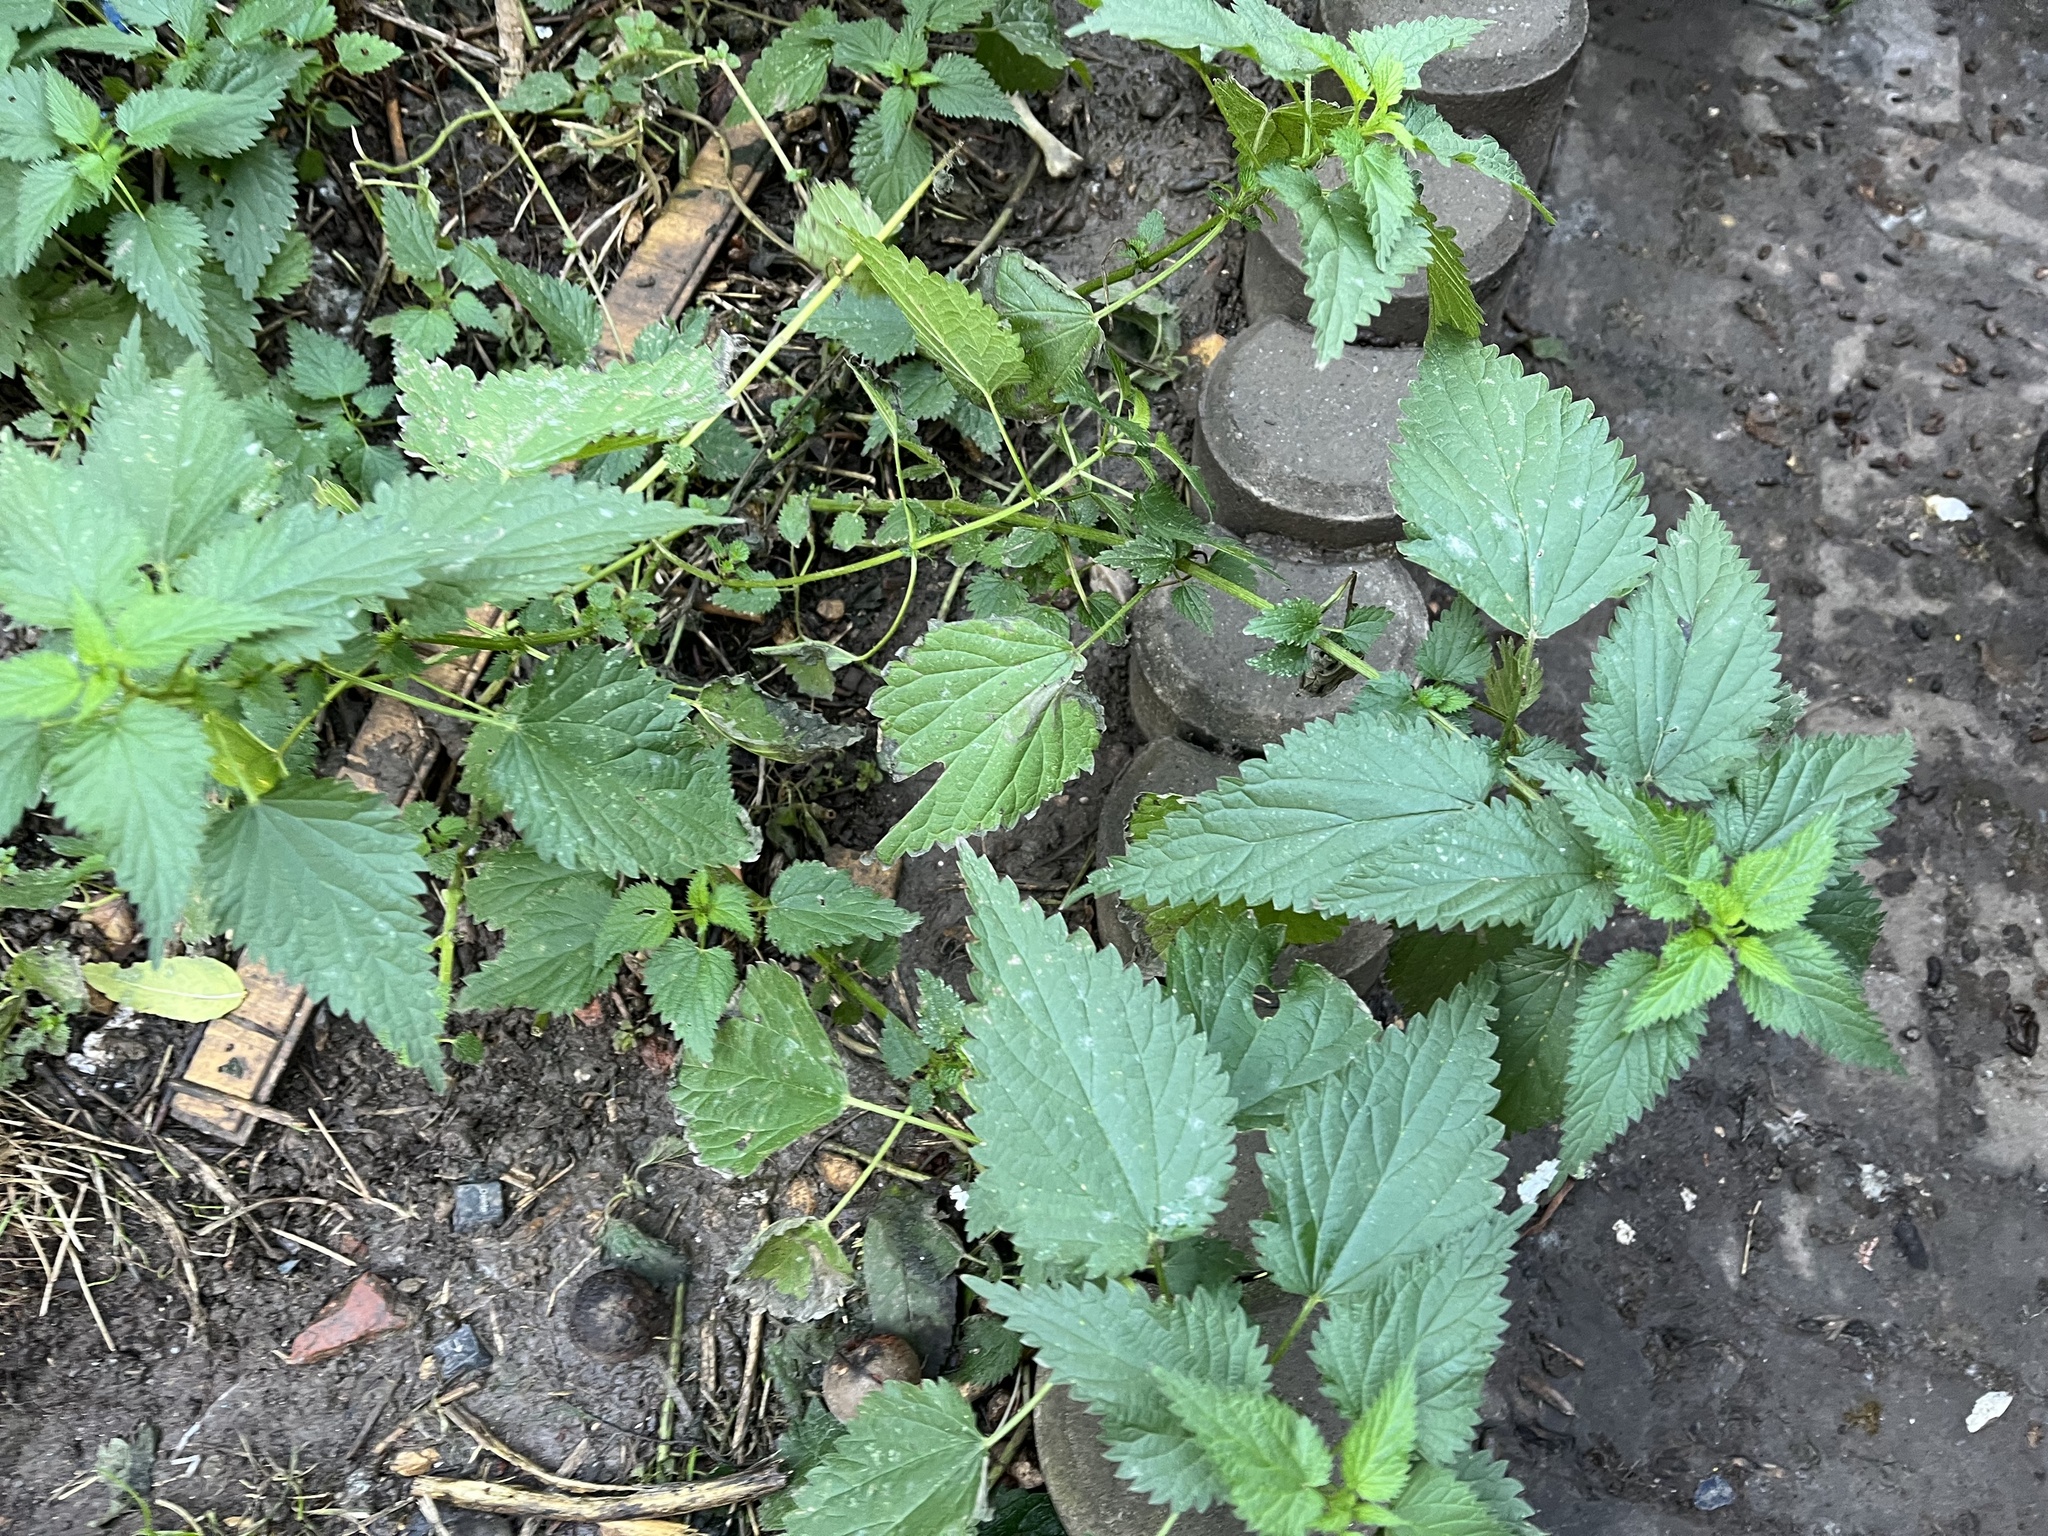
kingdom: Plantae
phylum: Tracheophyta
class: Magnoliopsida
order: Rosales
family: Urticaceae
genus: Urtica
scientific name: Urtica dioica
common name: Common nettle
